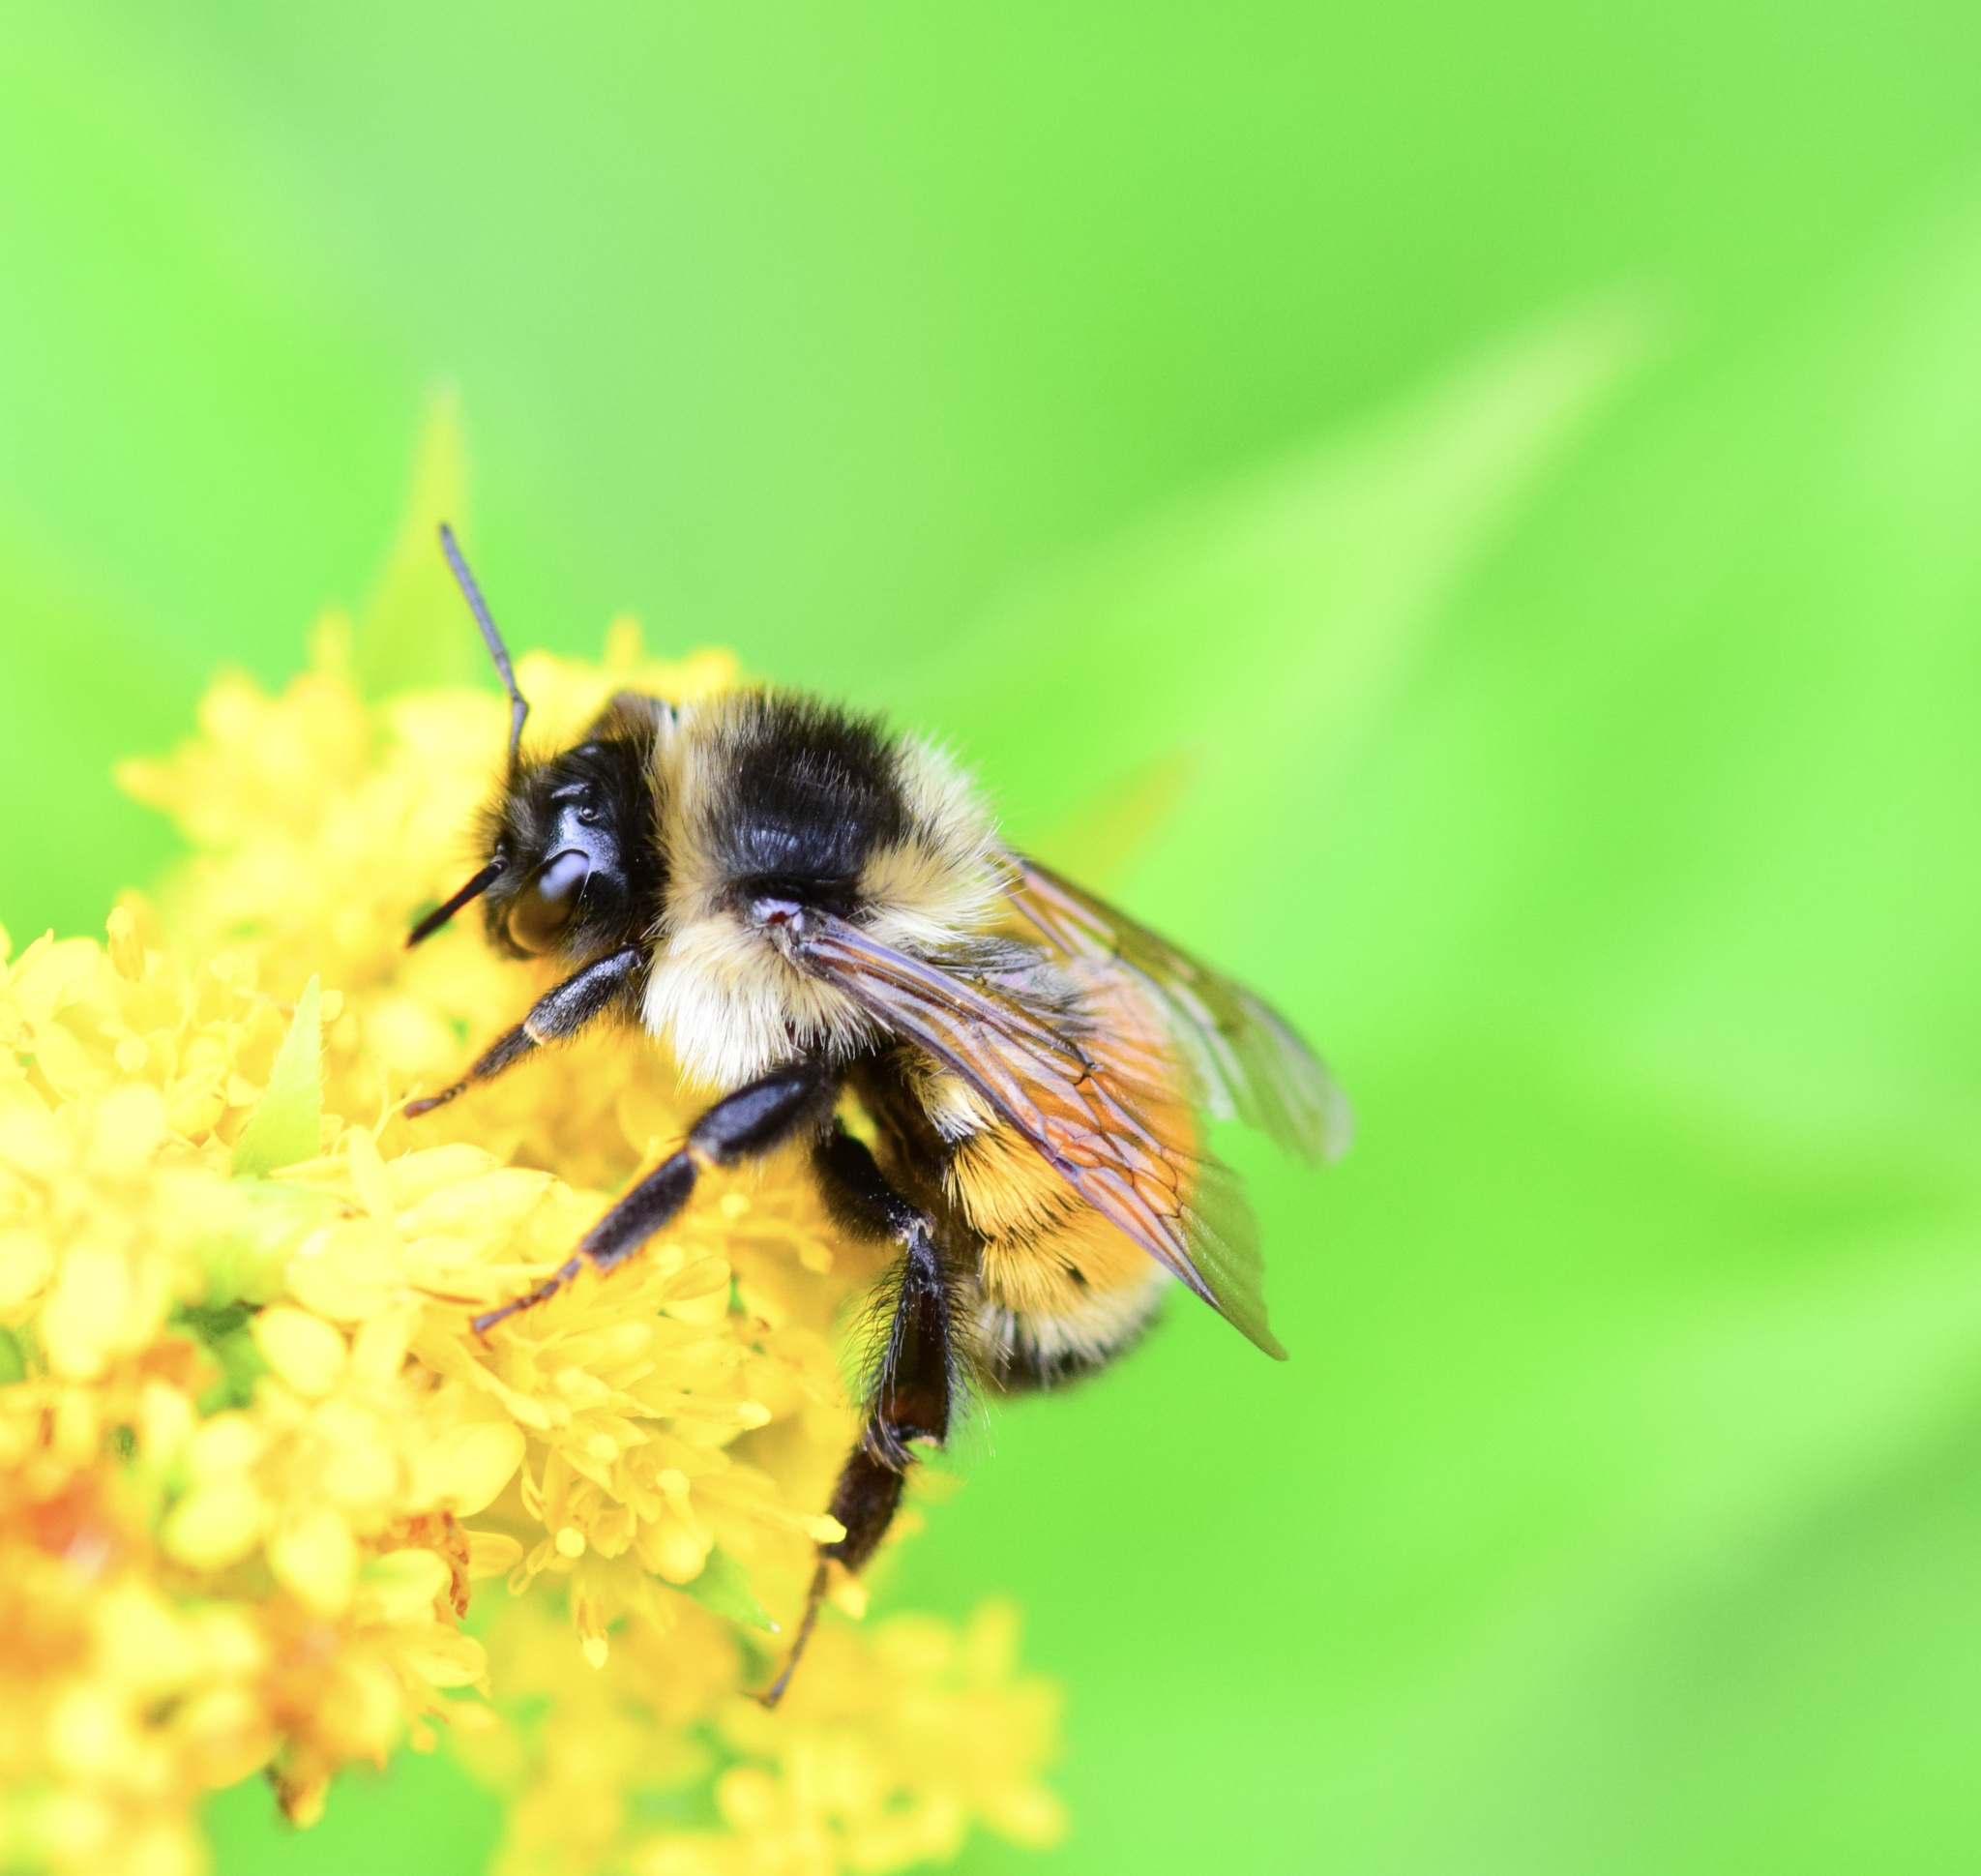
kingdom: Animalia
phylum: Arthropoda
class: Insecta
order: Hymenoptera
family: Apidae
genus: Bombus
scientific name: Bombus ternarius
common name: Tri-colored bumble bee
